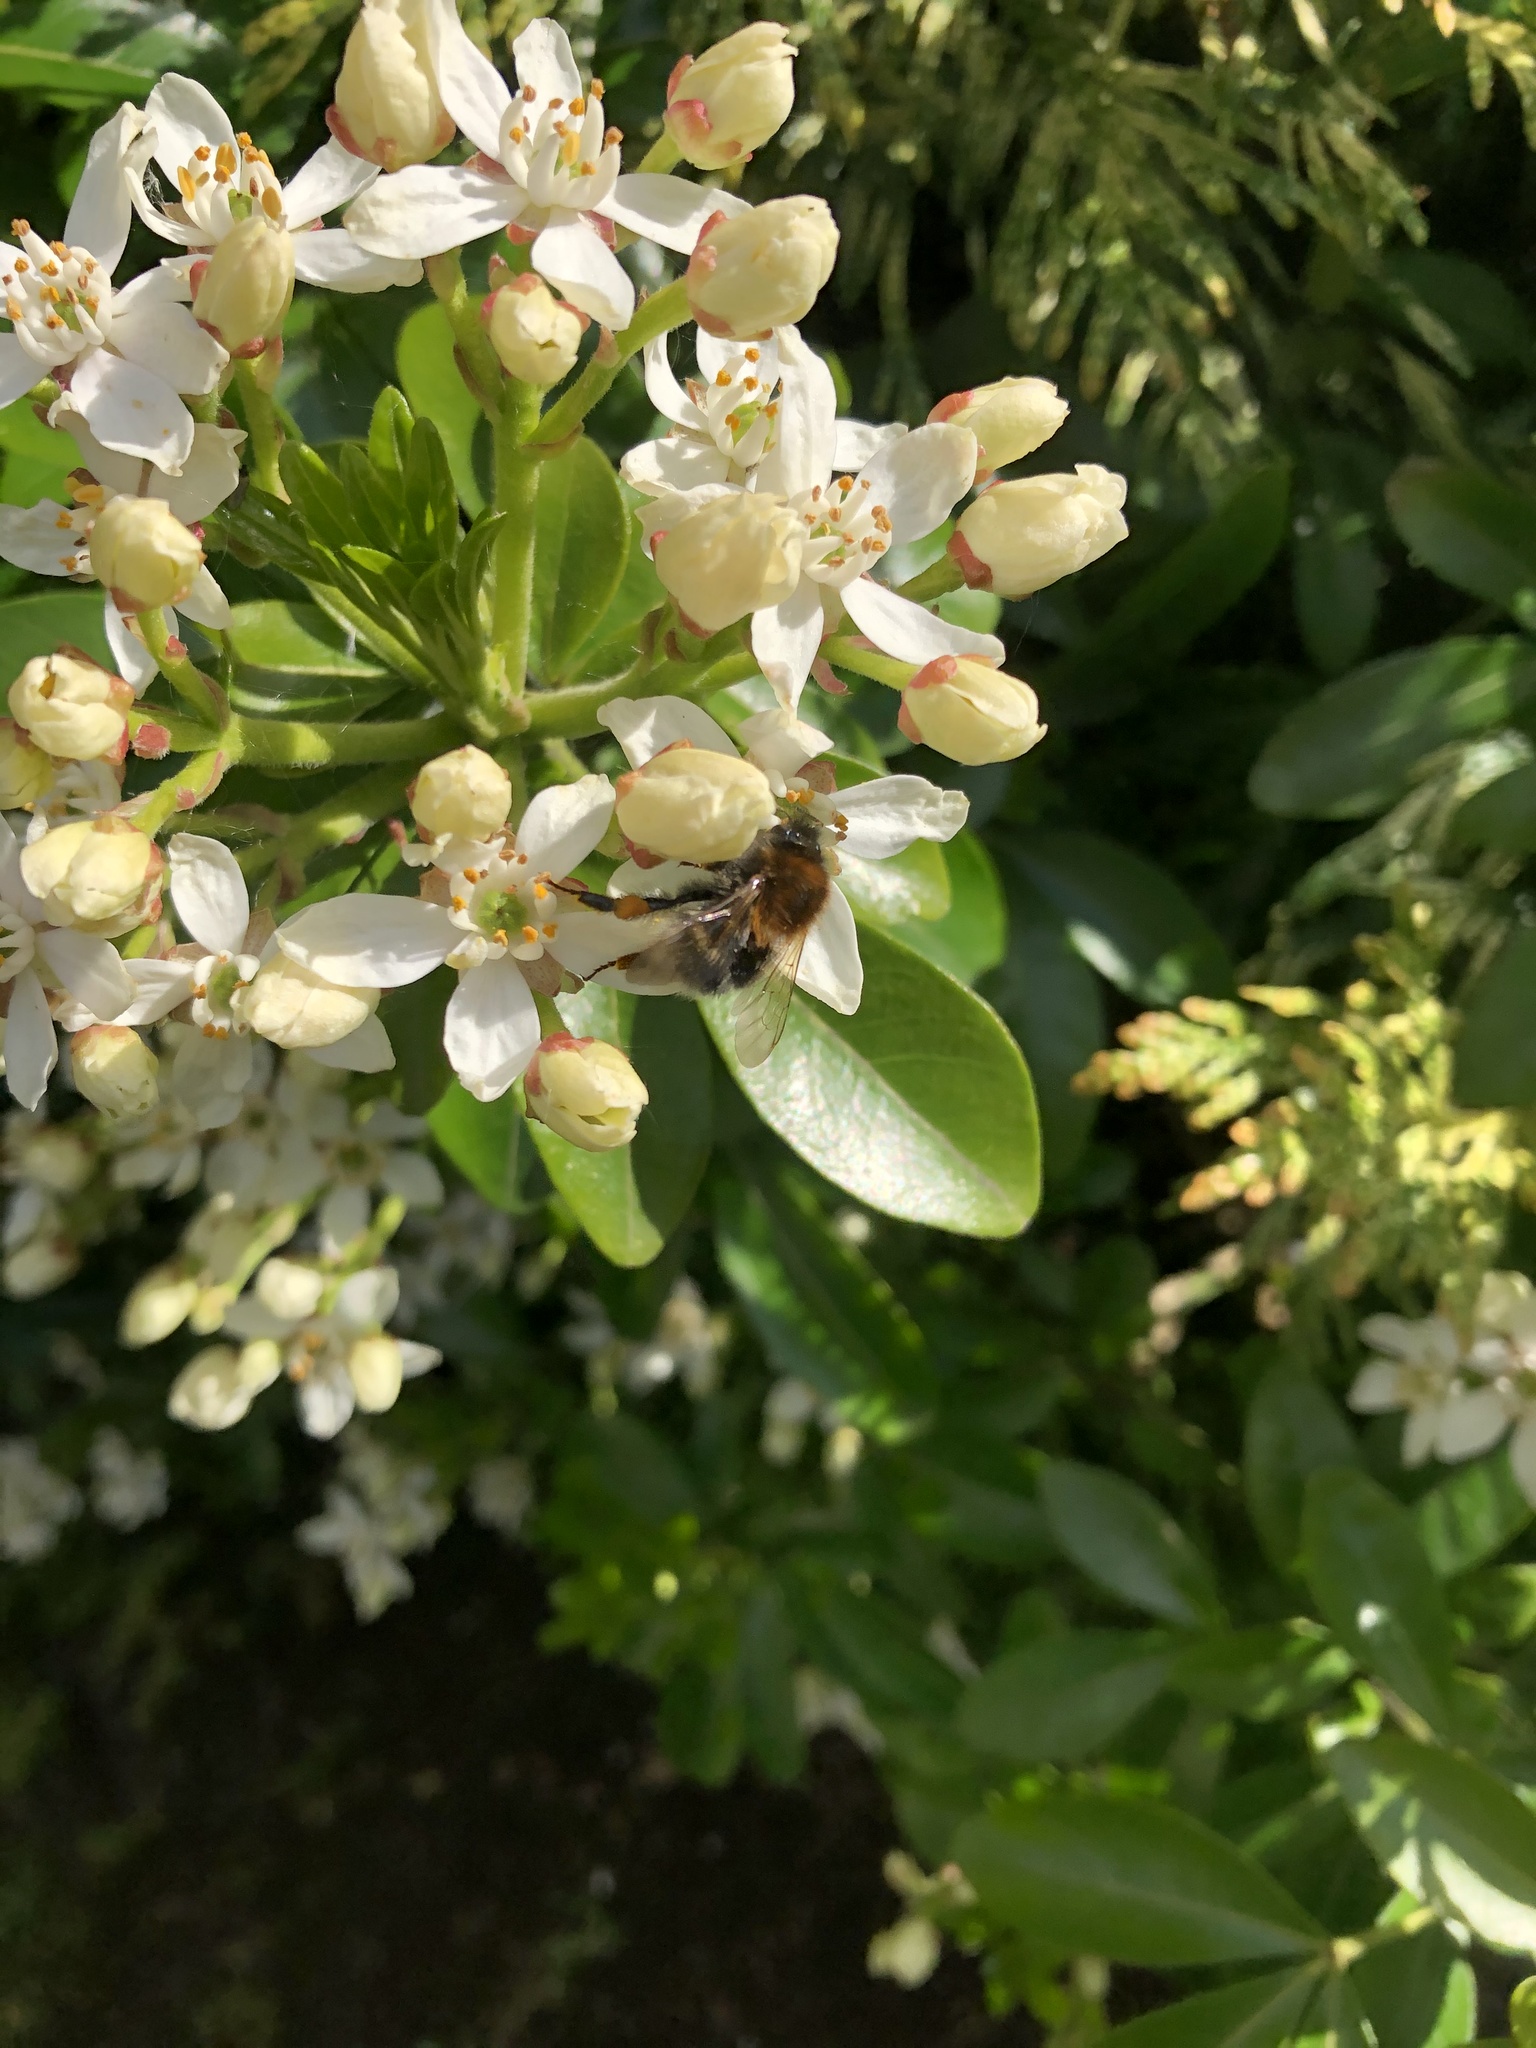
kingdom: Animalia
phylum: Arthropoda
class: Insecta
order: Hymenoptera
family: Apidae
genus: Bombus
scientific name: Bombus hypnorum
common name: New garden bumblebee
